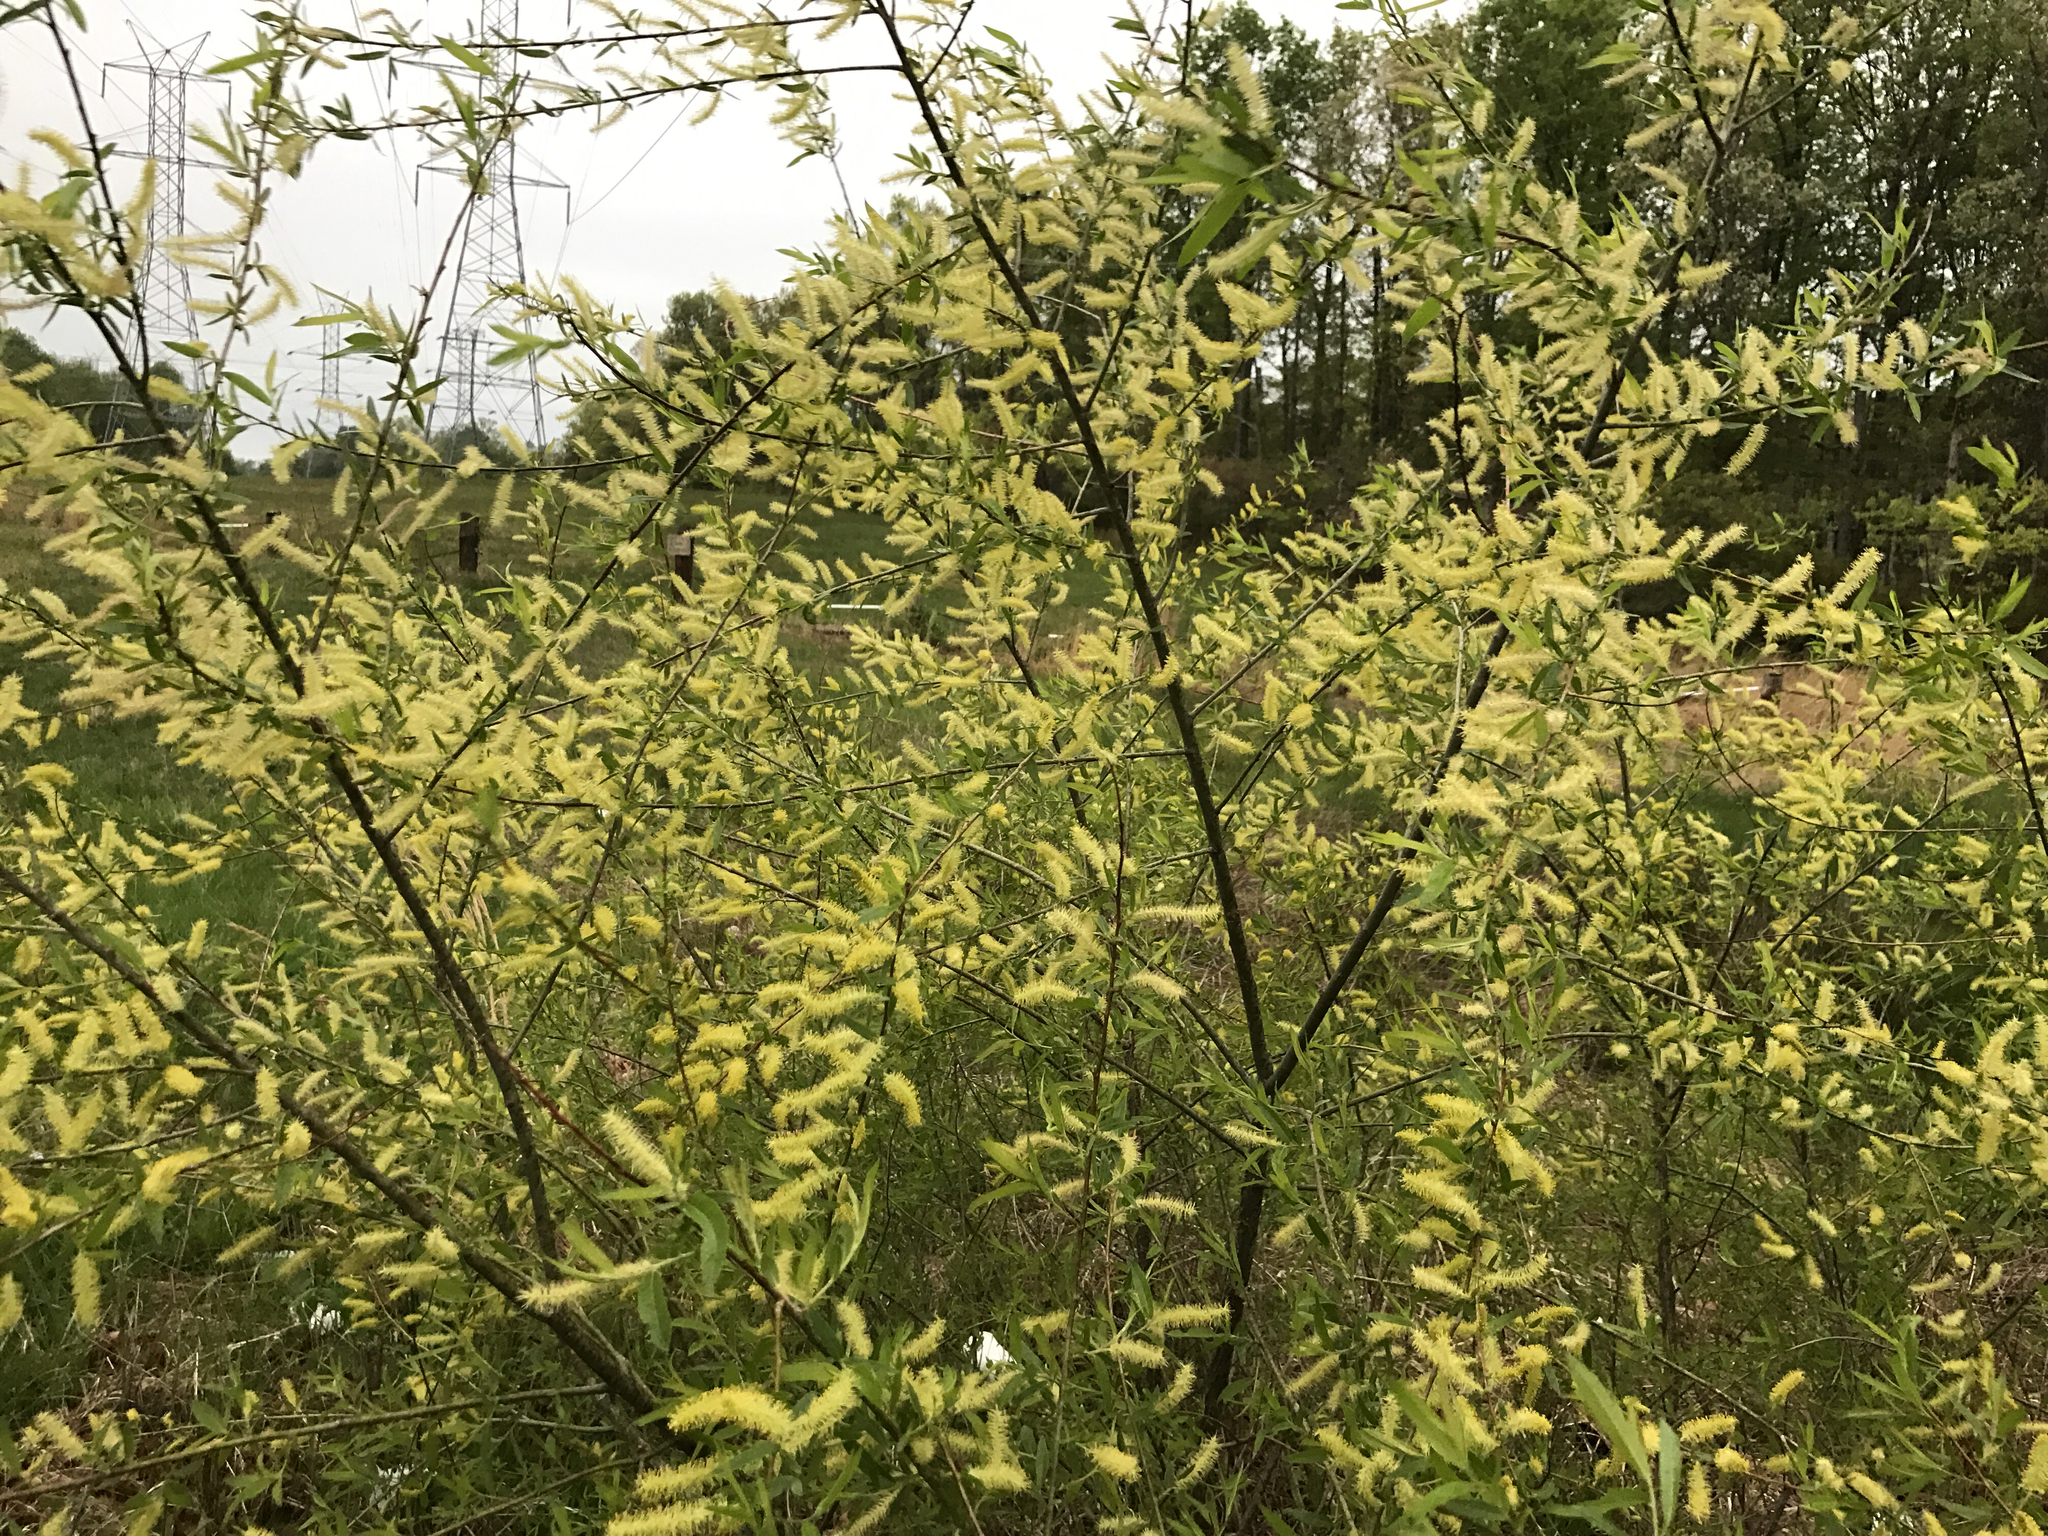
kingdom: Plantae
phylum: Tracheophyta
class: Magnoliopsida
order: Malpighiales
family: Salicaceae
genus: Salix
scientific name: Salix nigra
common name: Black willow
